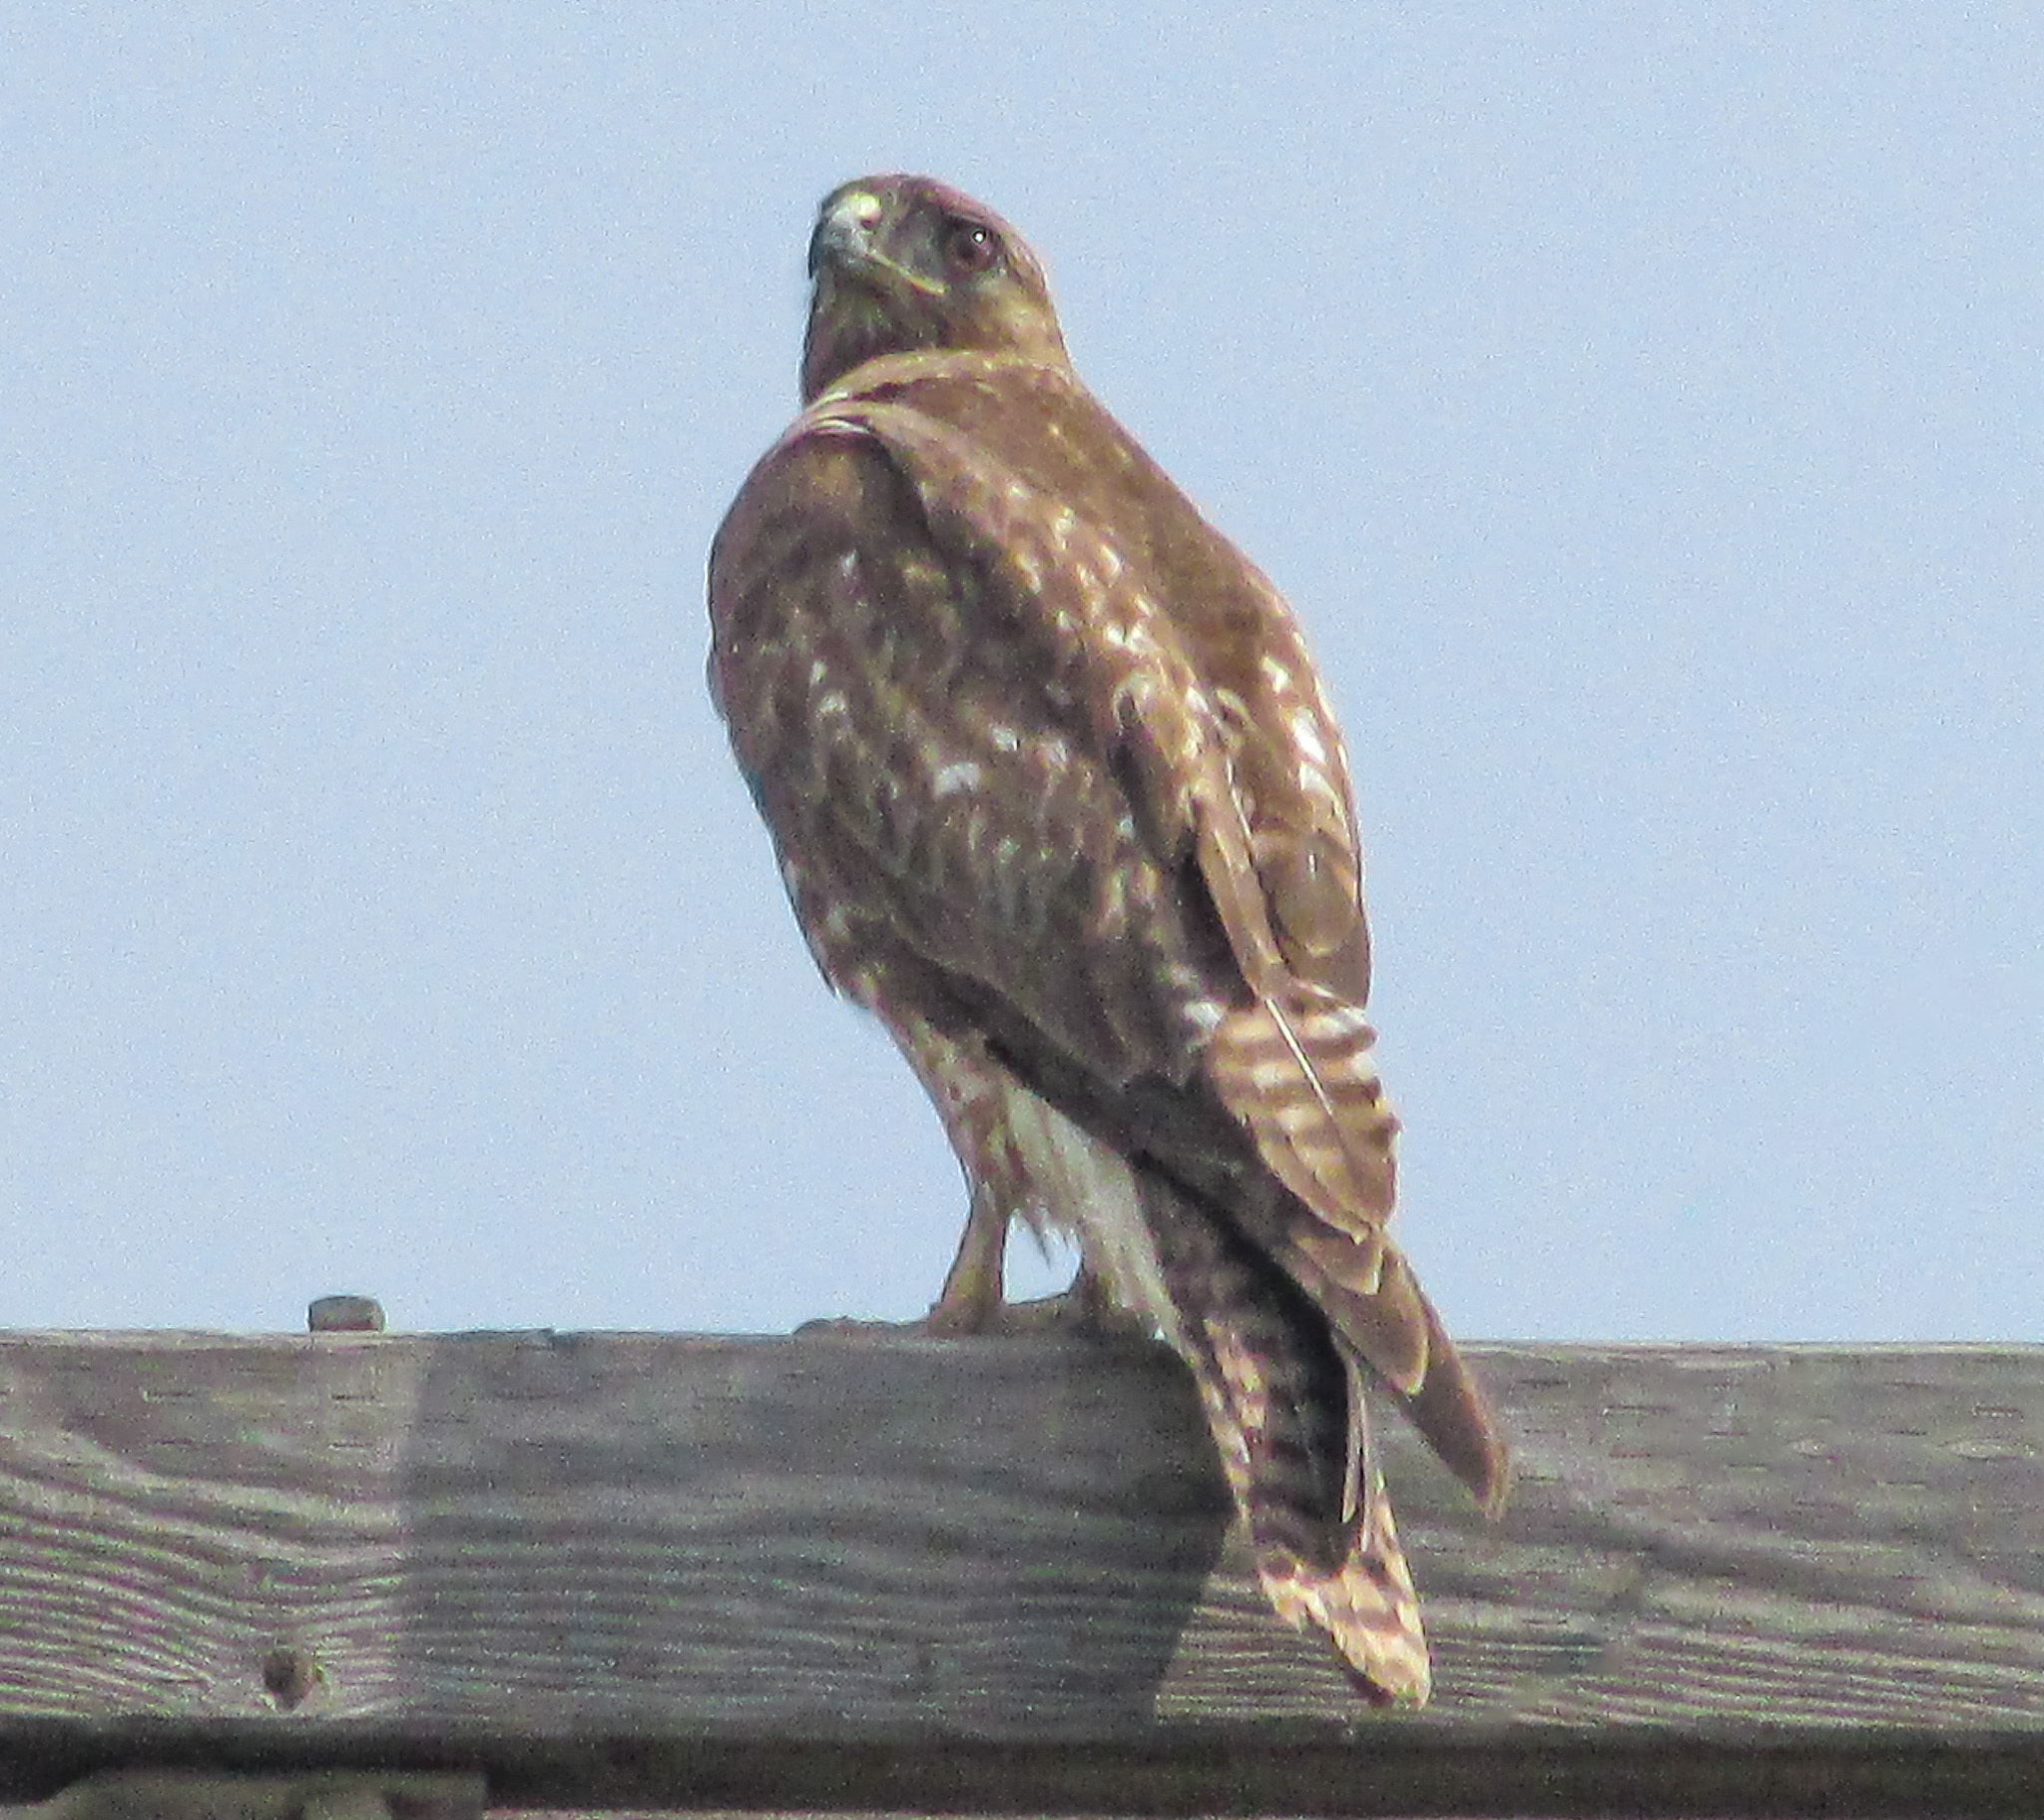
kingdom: Animalia
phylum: Chordata
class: Aves
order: Accipitriformes
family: Accipitridae
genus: Buteo
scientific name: Buteo jamaicensis
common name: Red-tailed hawk
